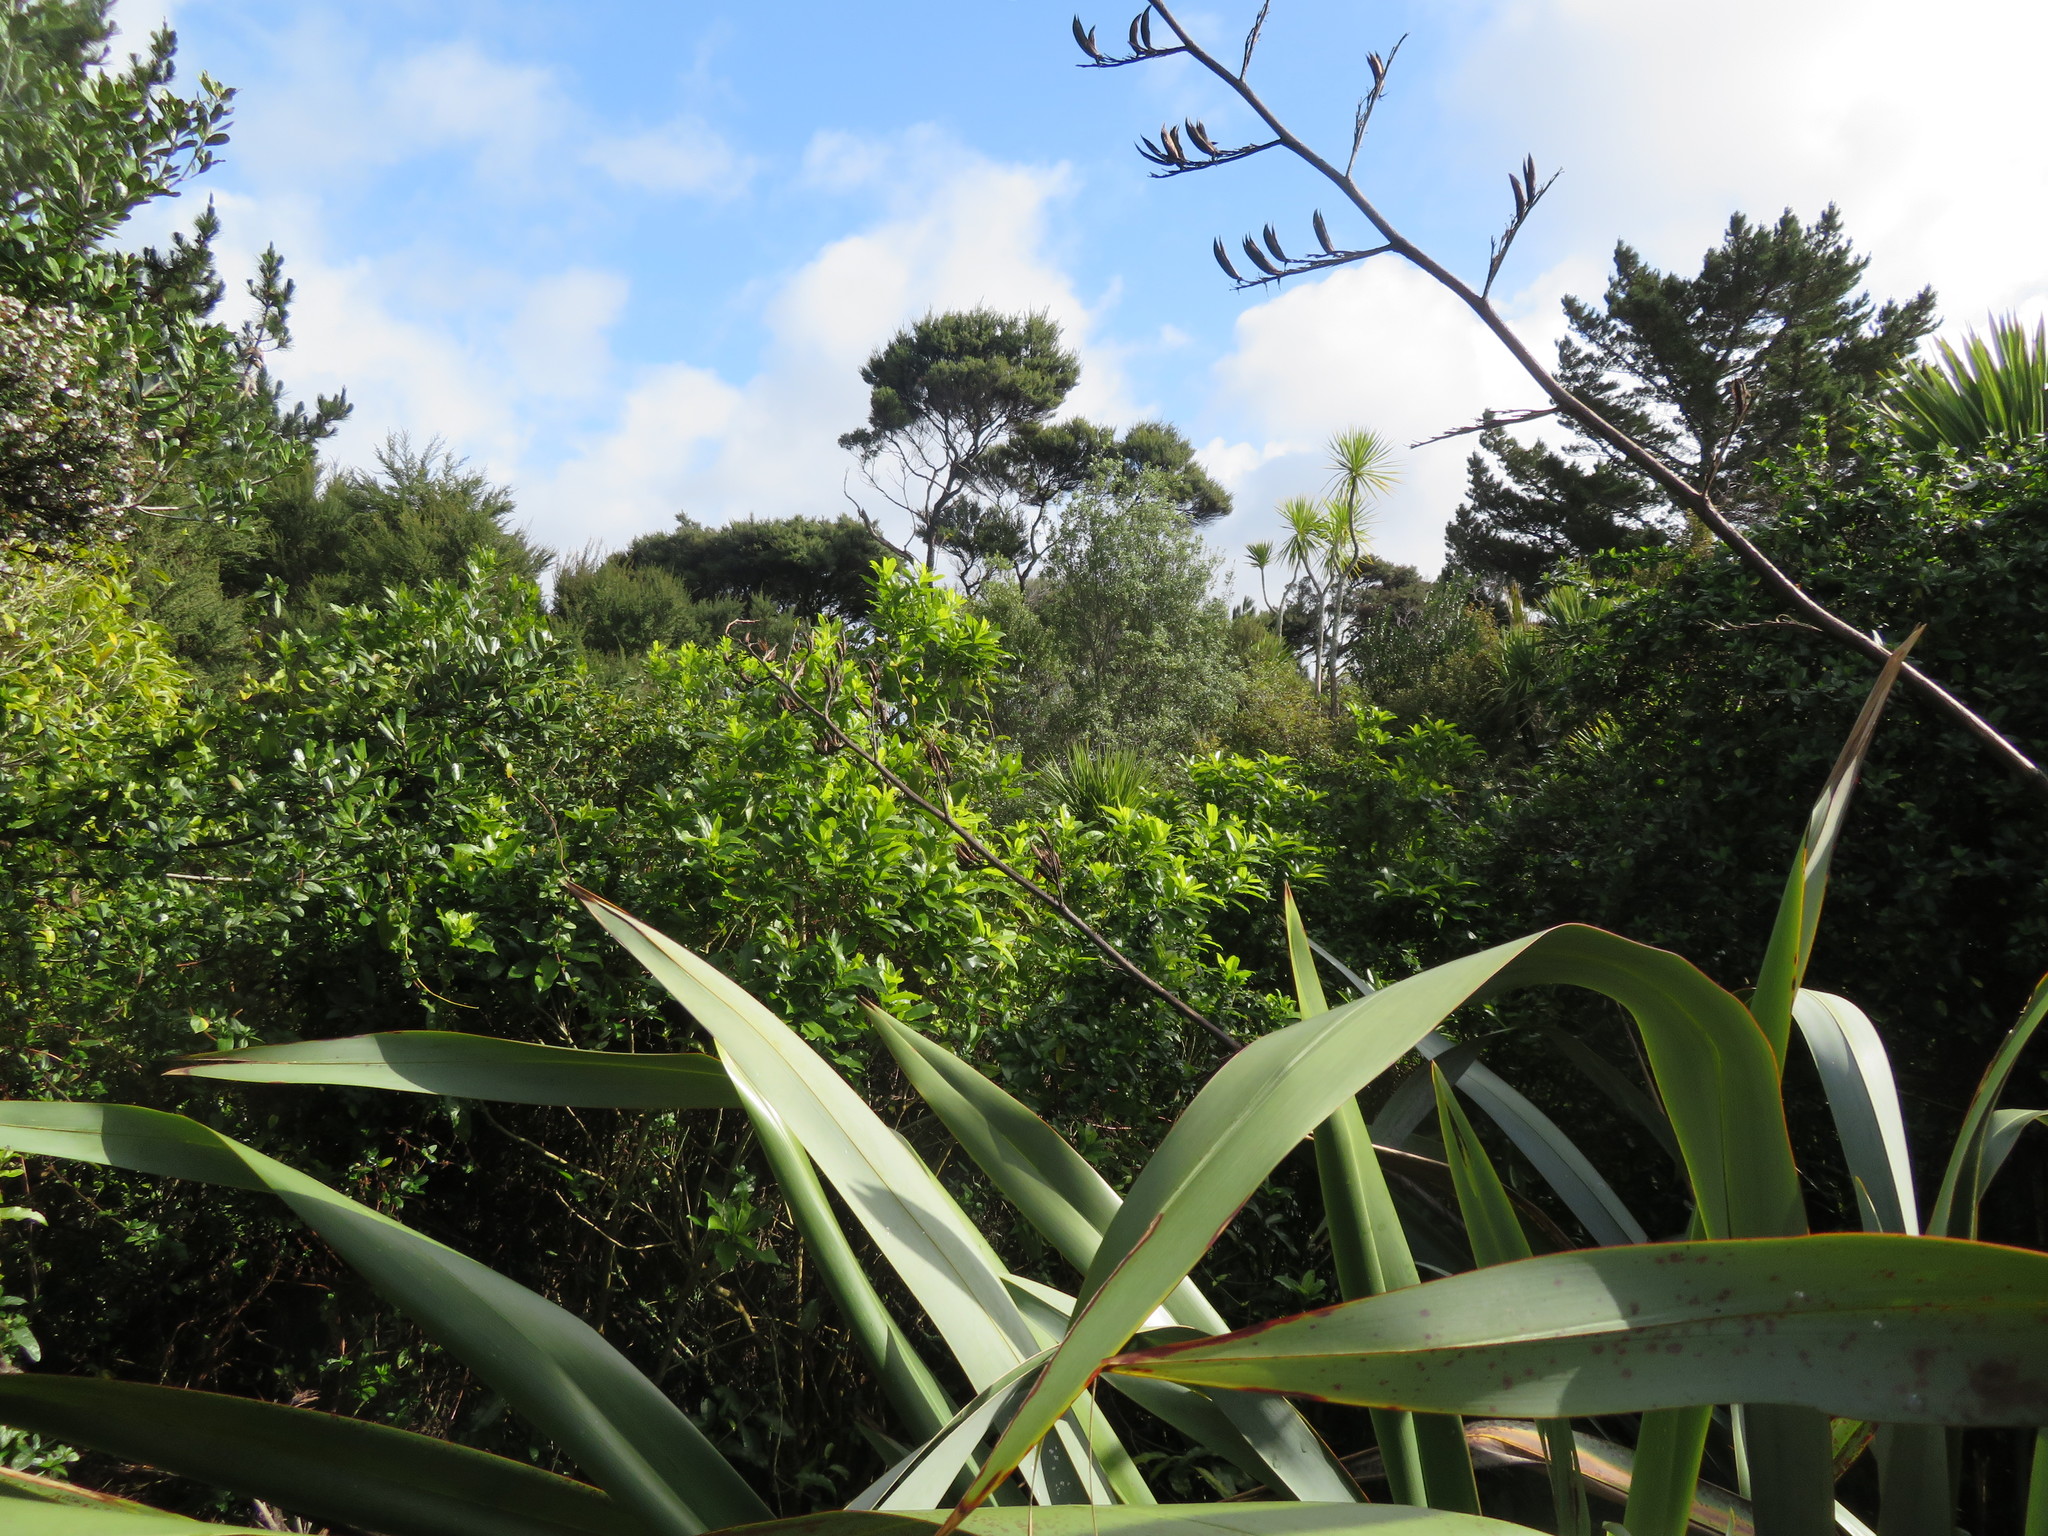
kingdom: Plantae
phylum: Tracheophyta
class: Magnoliopsida
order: Malpighiales
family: Violaceae
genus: Melicytus
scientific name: Melicytus ramiflorus
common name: Mahoe
